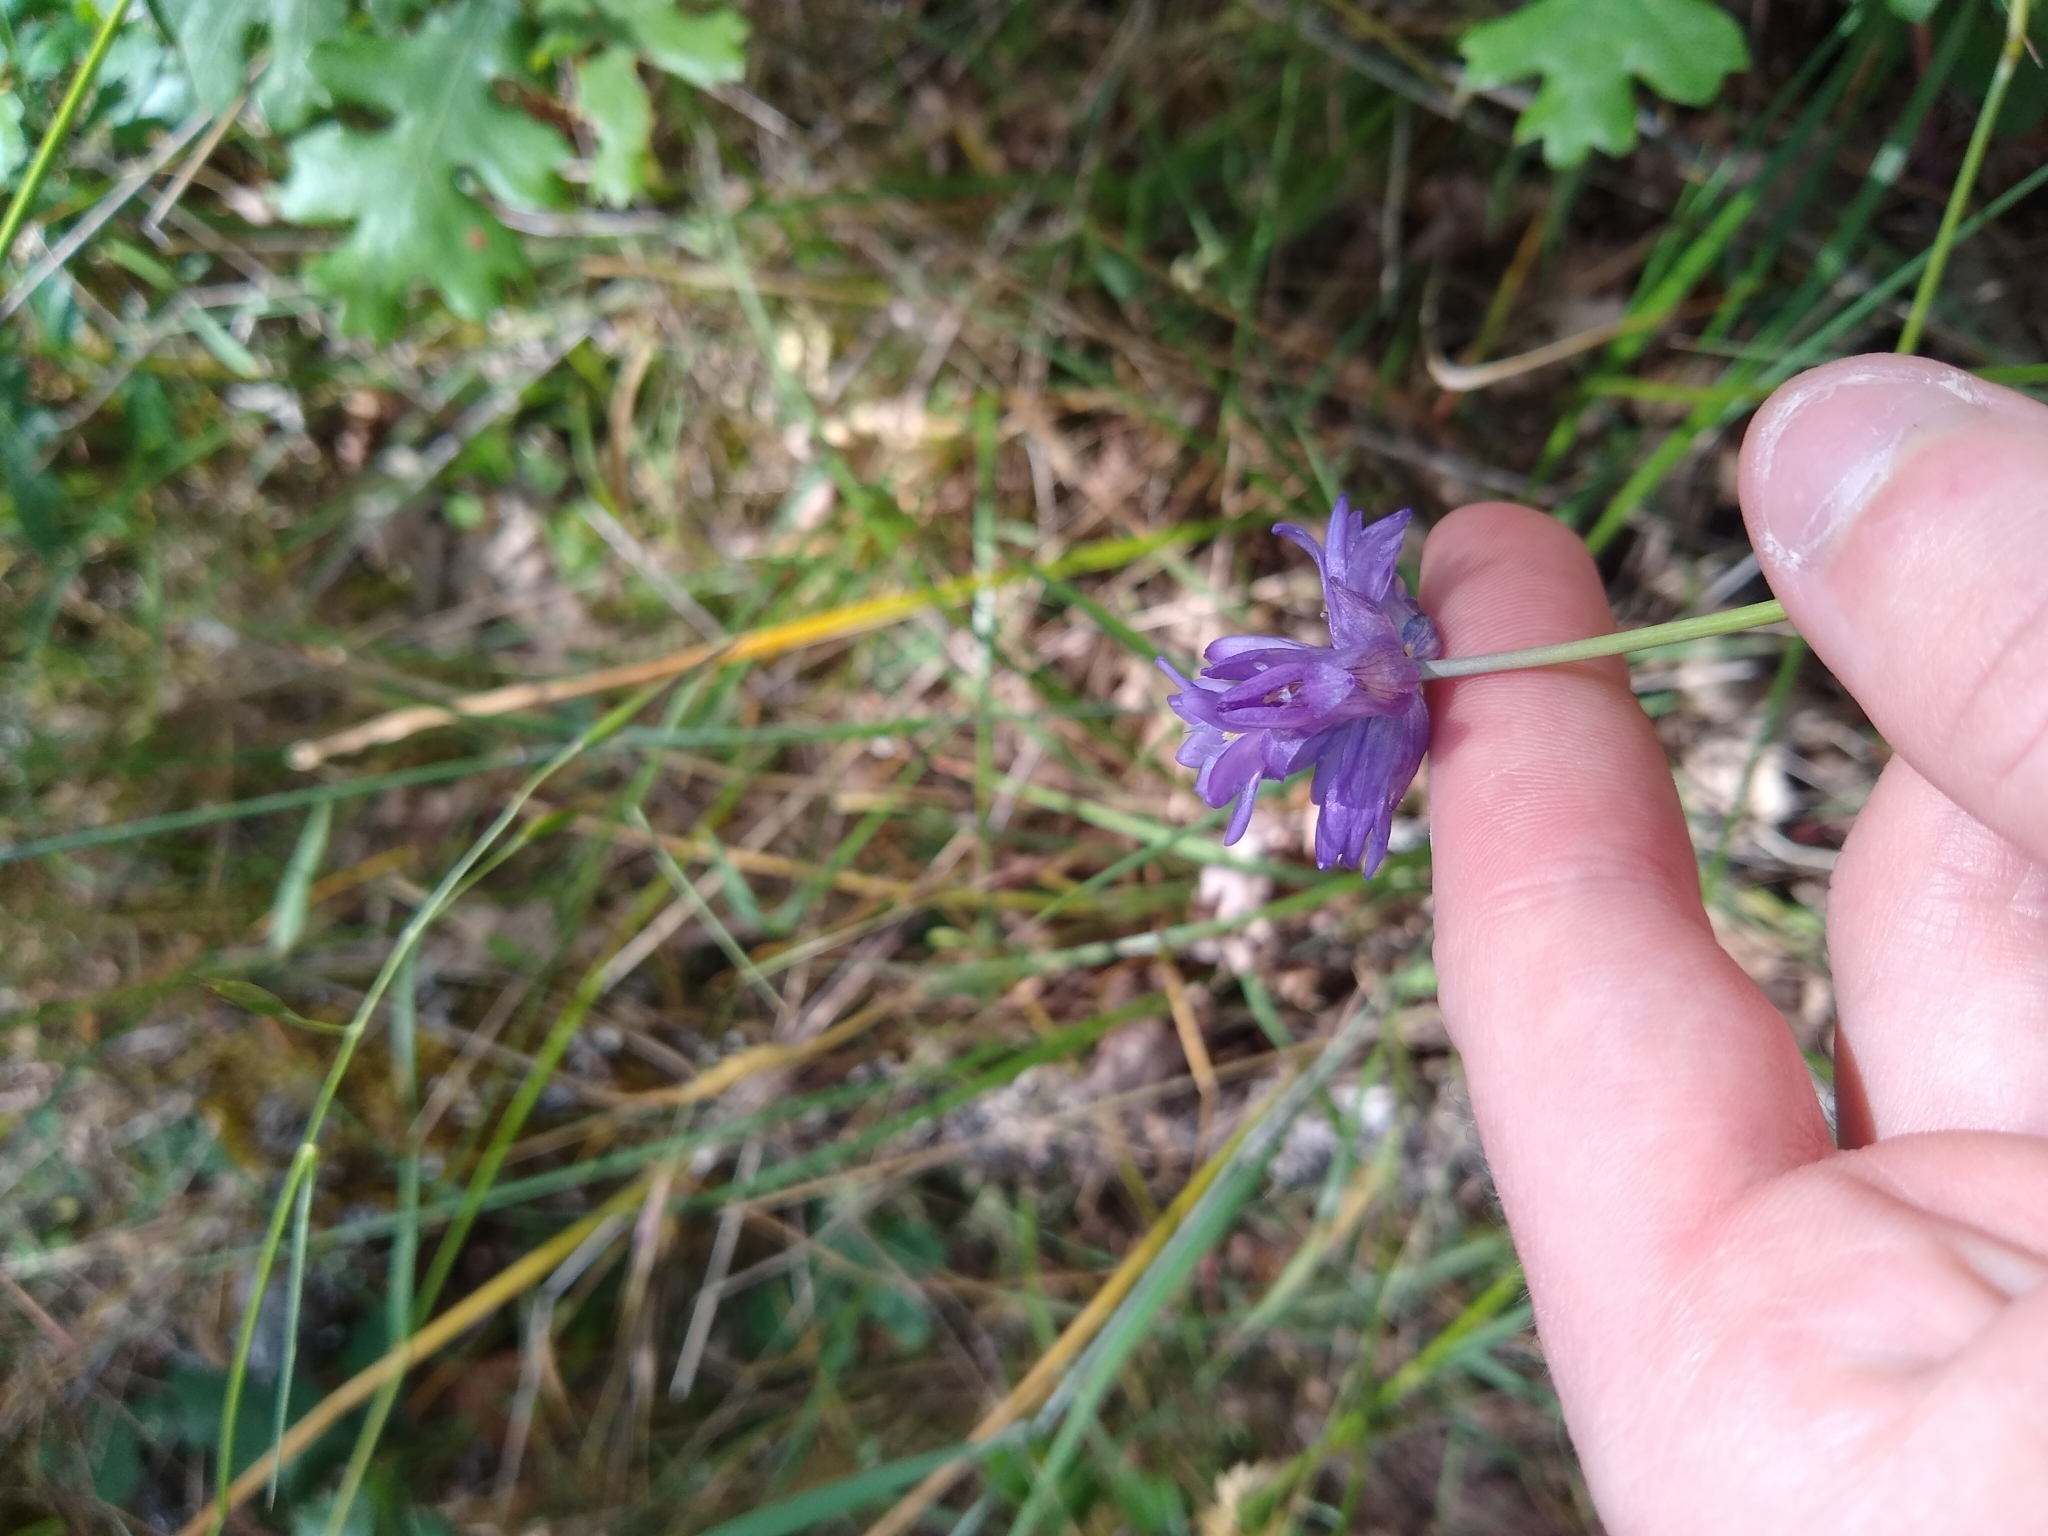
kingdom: Plantae
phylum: Tracheophyta
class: Liliopsida
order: Asparagales
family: Asparagaceae
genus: Dichelostemma
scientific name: Dichelostemma congestum
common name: Fork-tooth ookow
